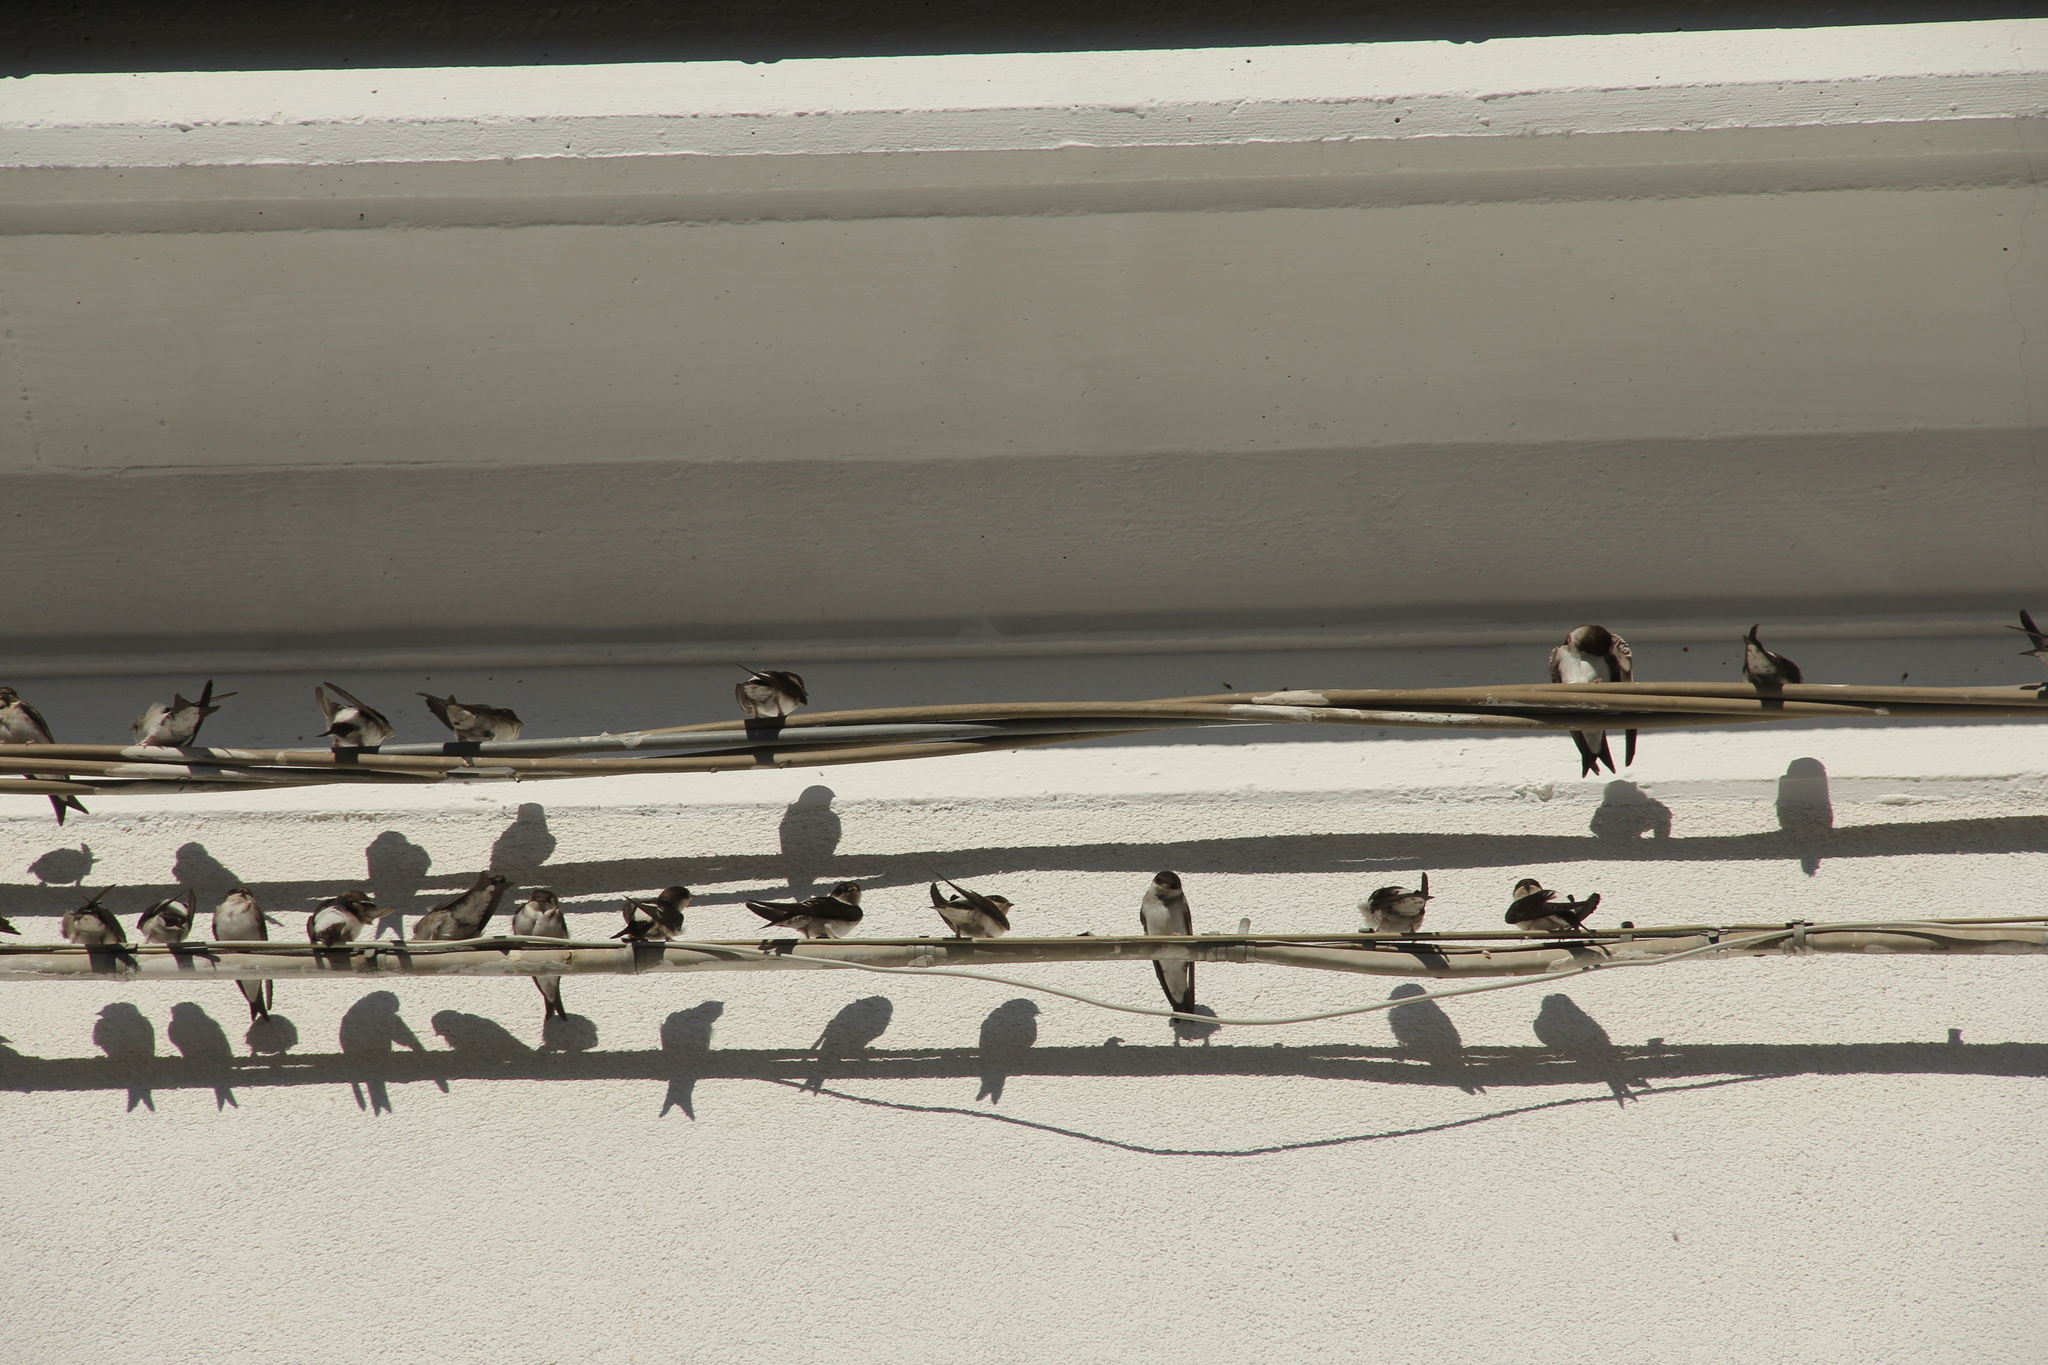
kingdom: Animalia
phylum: Chordata
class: Aves
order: Passeriformes
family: Hirundinidae
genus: Delichon
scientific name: Delichon urbicum
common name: Common house martin
